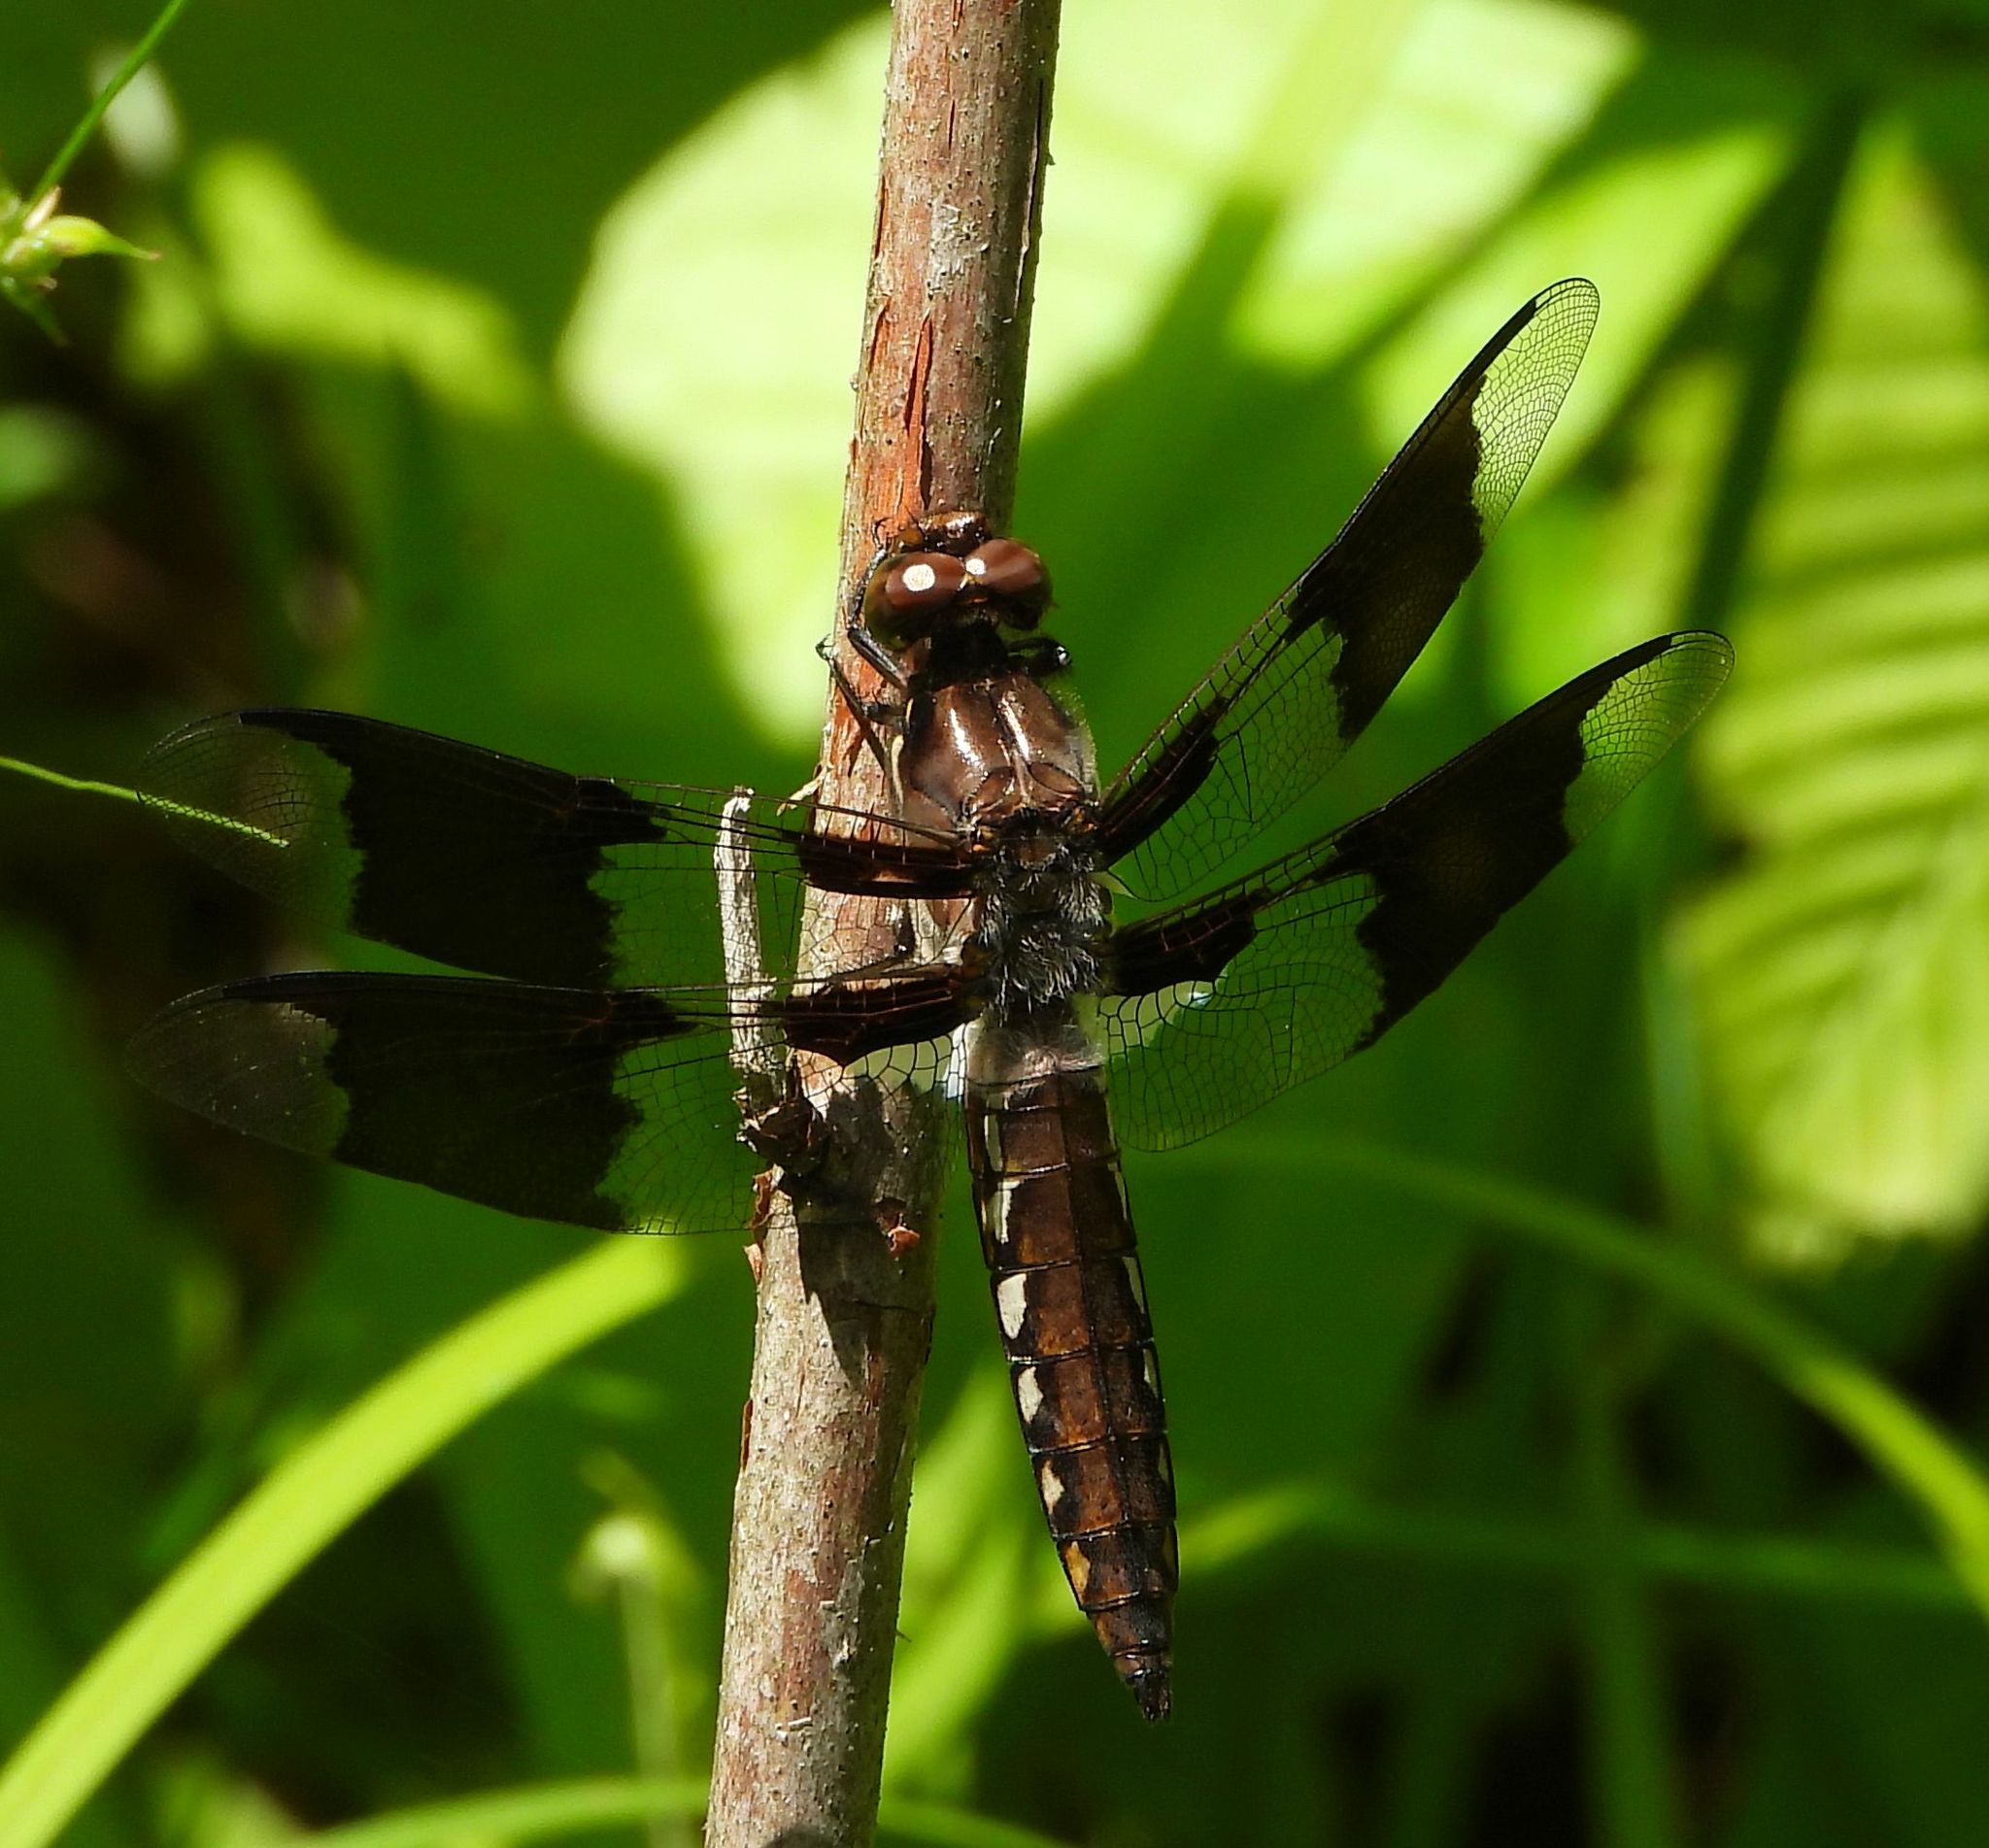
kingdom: Animalia
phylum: Arthropoda
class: Insecta
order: Odonata
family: Libellulidae
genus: Plathemis
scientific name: Plathemis lydia
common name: Common whitetail
